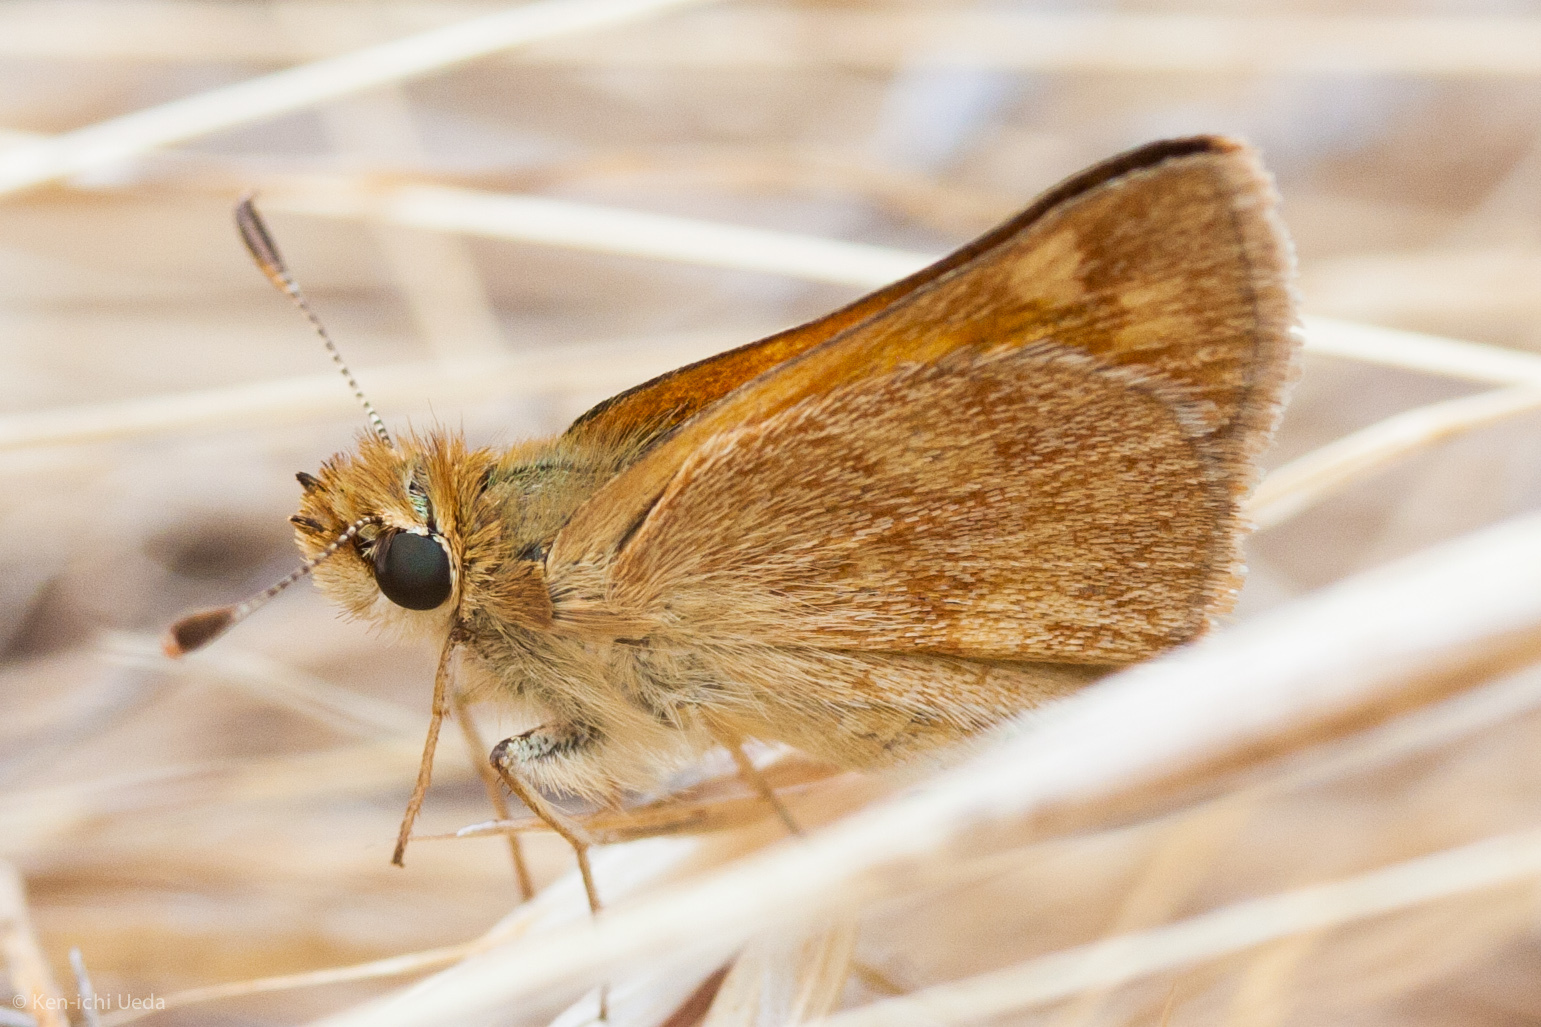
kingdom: Animalia
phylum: Arthropoda
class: Insecta
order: Lepidoptera
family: Hesperiidae
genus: Ochlodes
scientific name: Ochlodes sylvanoides
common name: Woodland skipper
